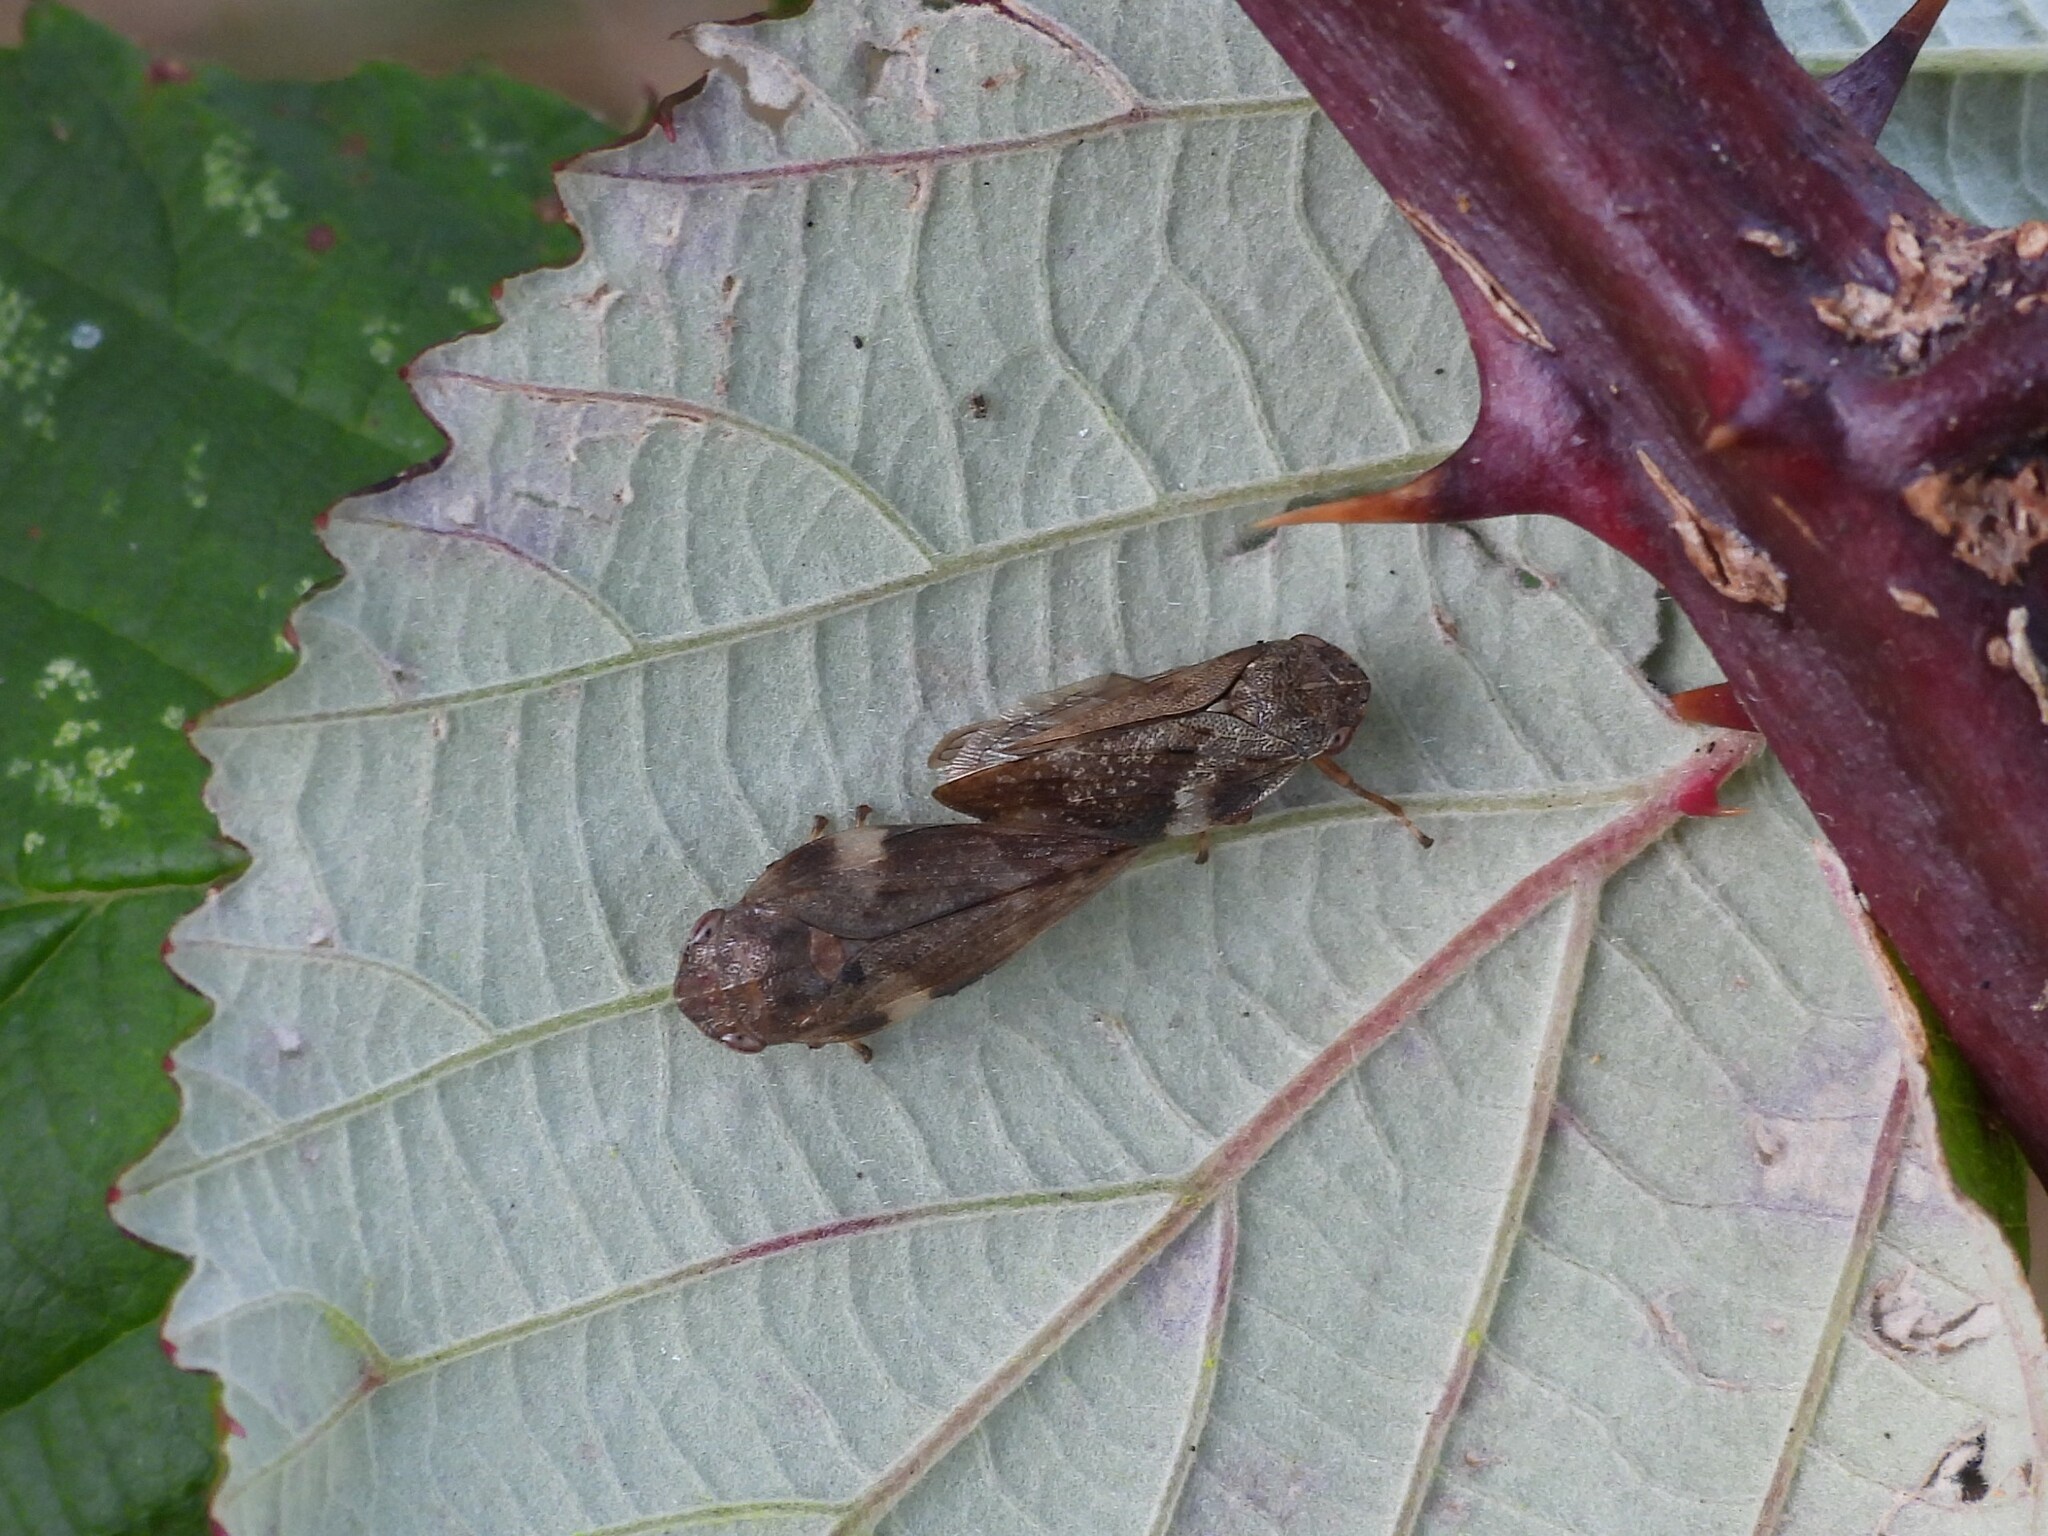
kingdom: Animalia
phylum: Arthropoda
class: Insecta
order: Hemiptera
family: Aphrophoridae
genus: Aphrophora
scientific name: Aphrophora alni
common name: European alder spittlebug
